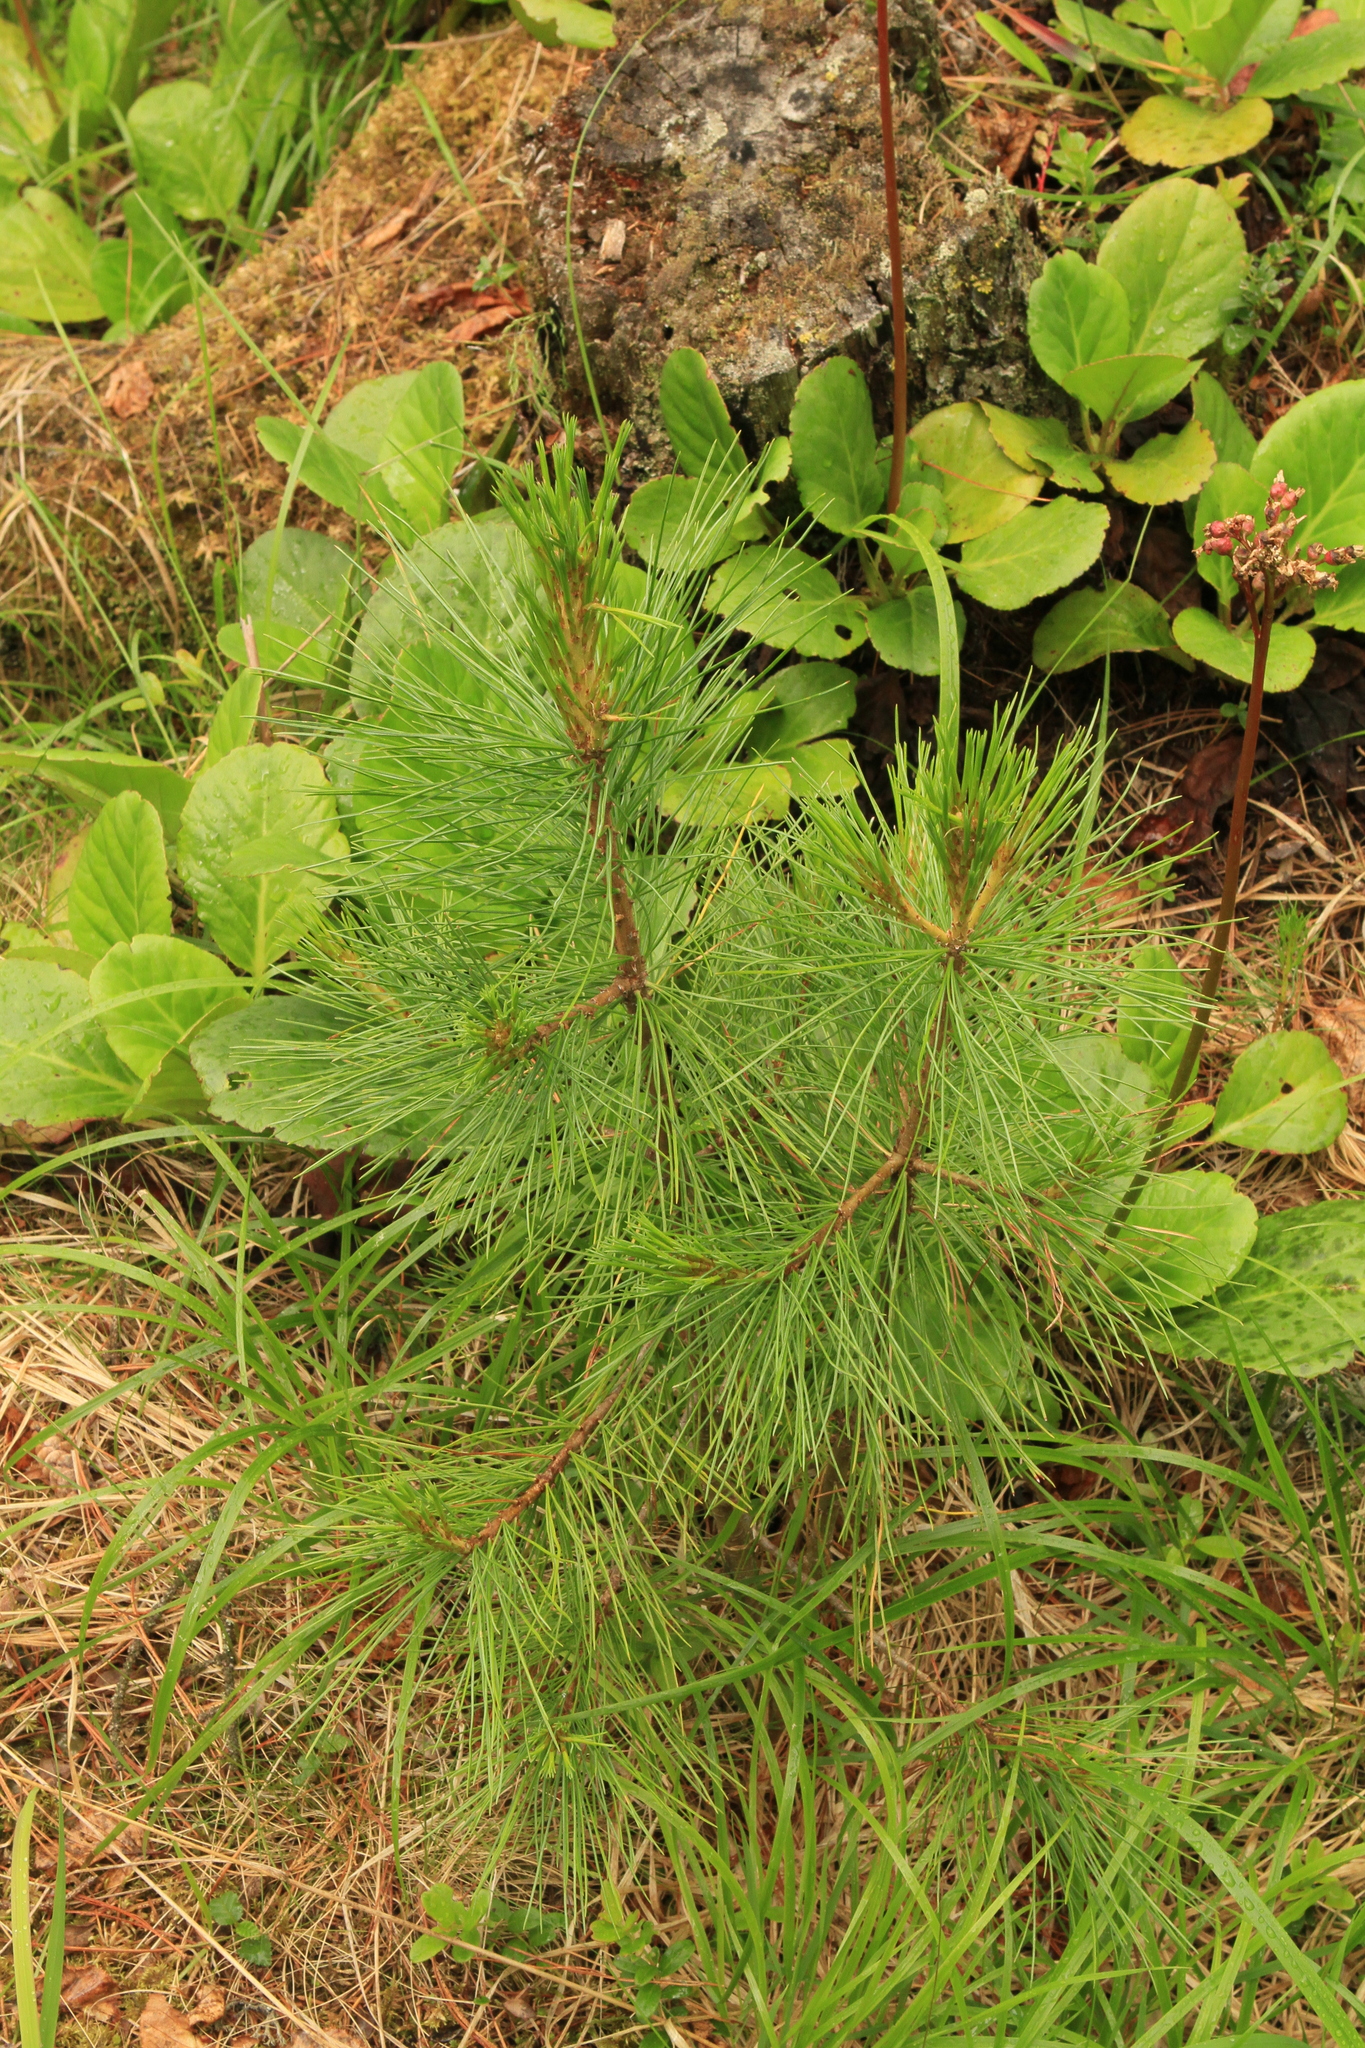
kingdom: Plantae
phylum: Tracheophyta
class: Pinopsida
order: Pinales
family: Pinaceae
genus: Pinus
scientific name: Pinus sibirica
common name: Siberian pine
